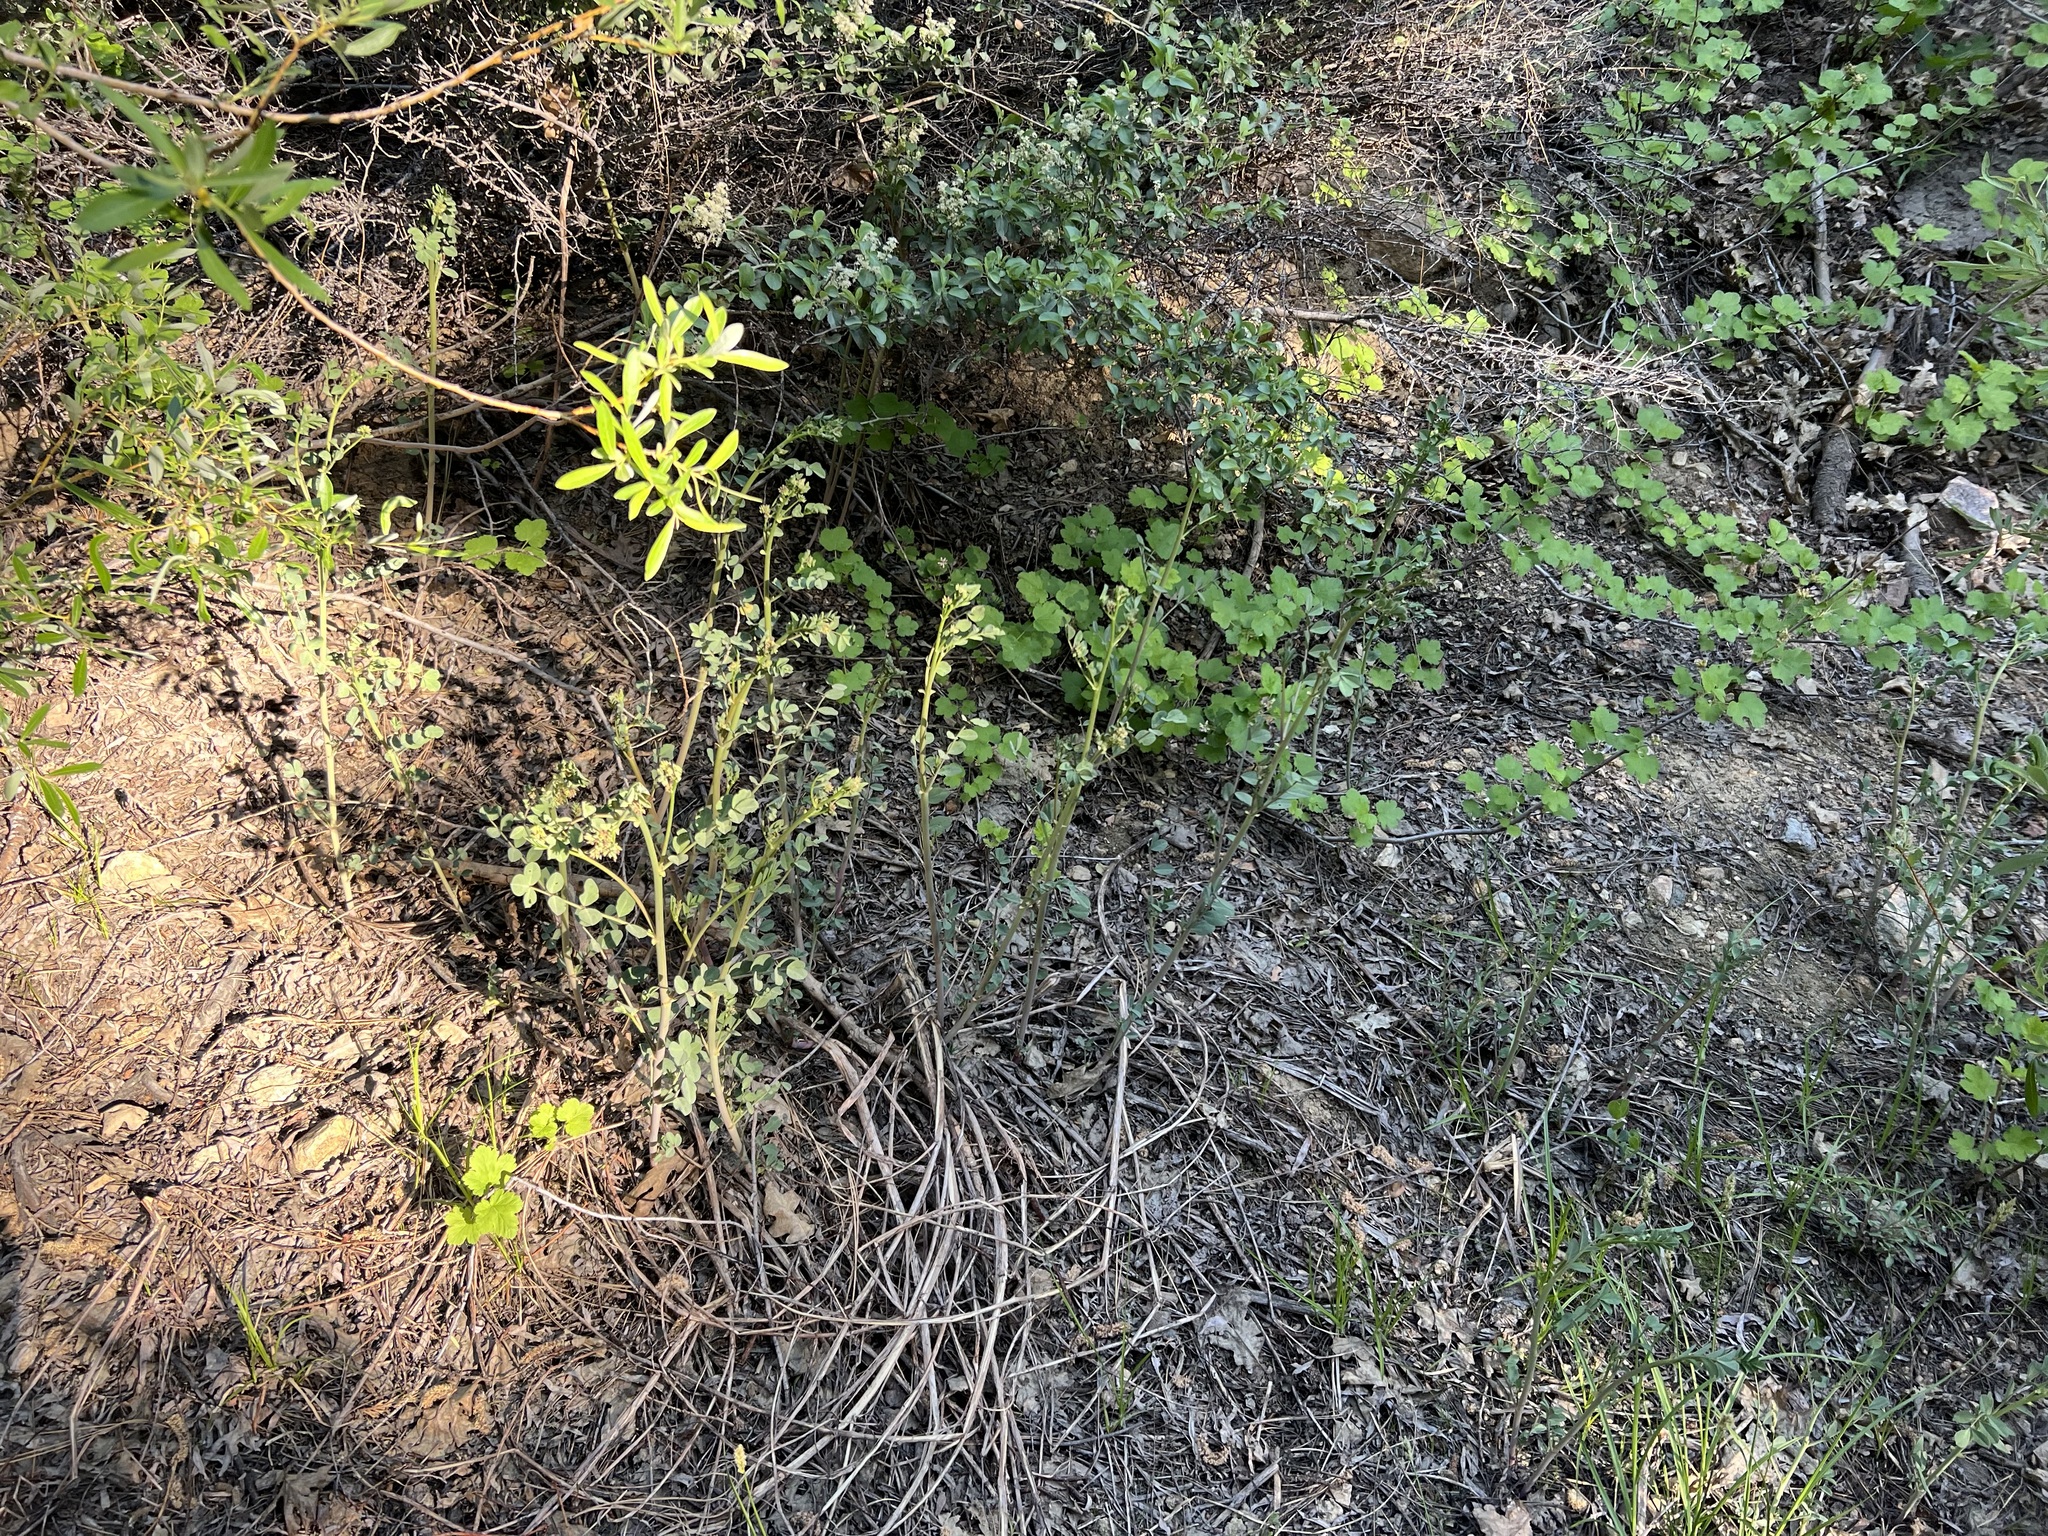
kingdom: Plantae
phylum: Tracheophyta
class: Magnoliopsida
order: Fabales
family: Fabaceae
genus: Hosackia
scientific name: Hosackia crassifolia
